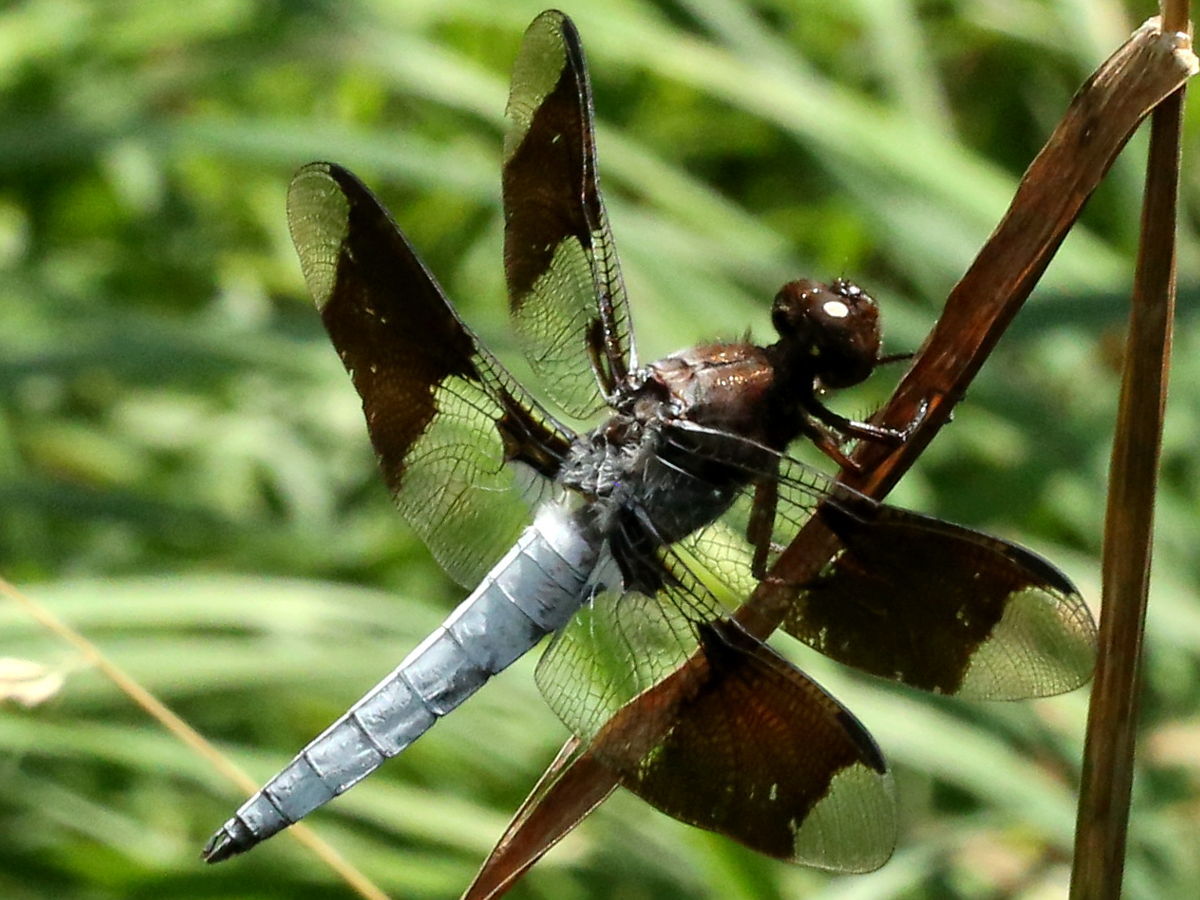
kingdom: Animalia
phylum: Arthropoda
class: Insecta
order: Odonata
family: Libellulidae
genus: Plathemis
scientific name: Plathemis lydia
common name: Common whitetail
